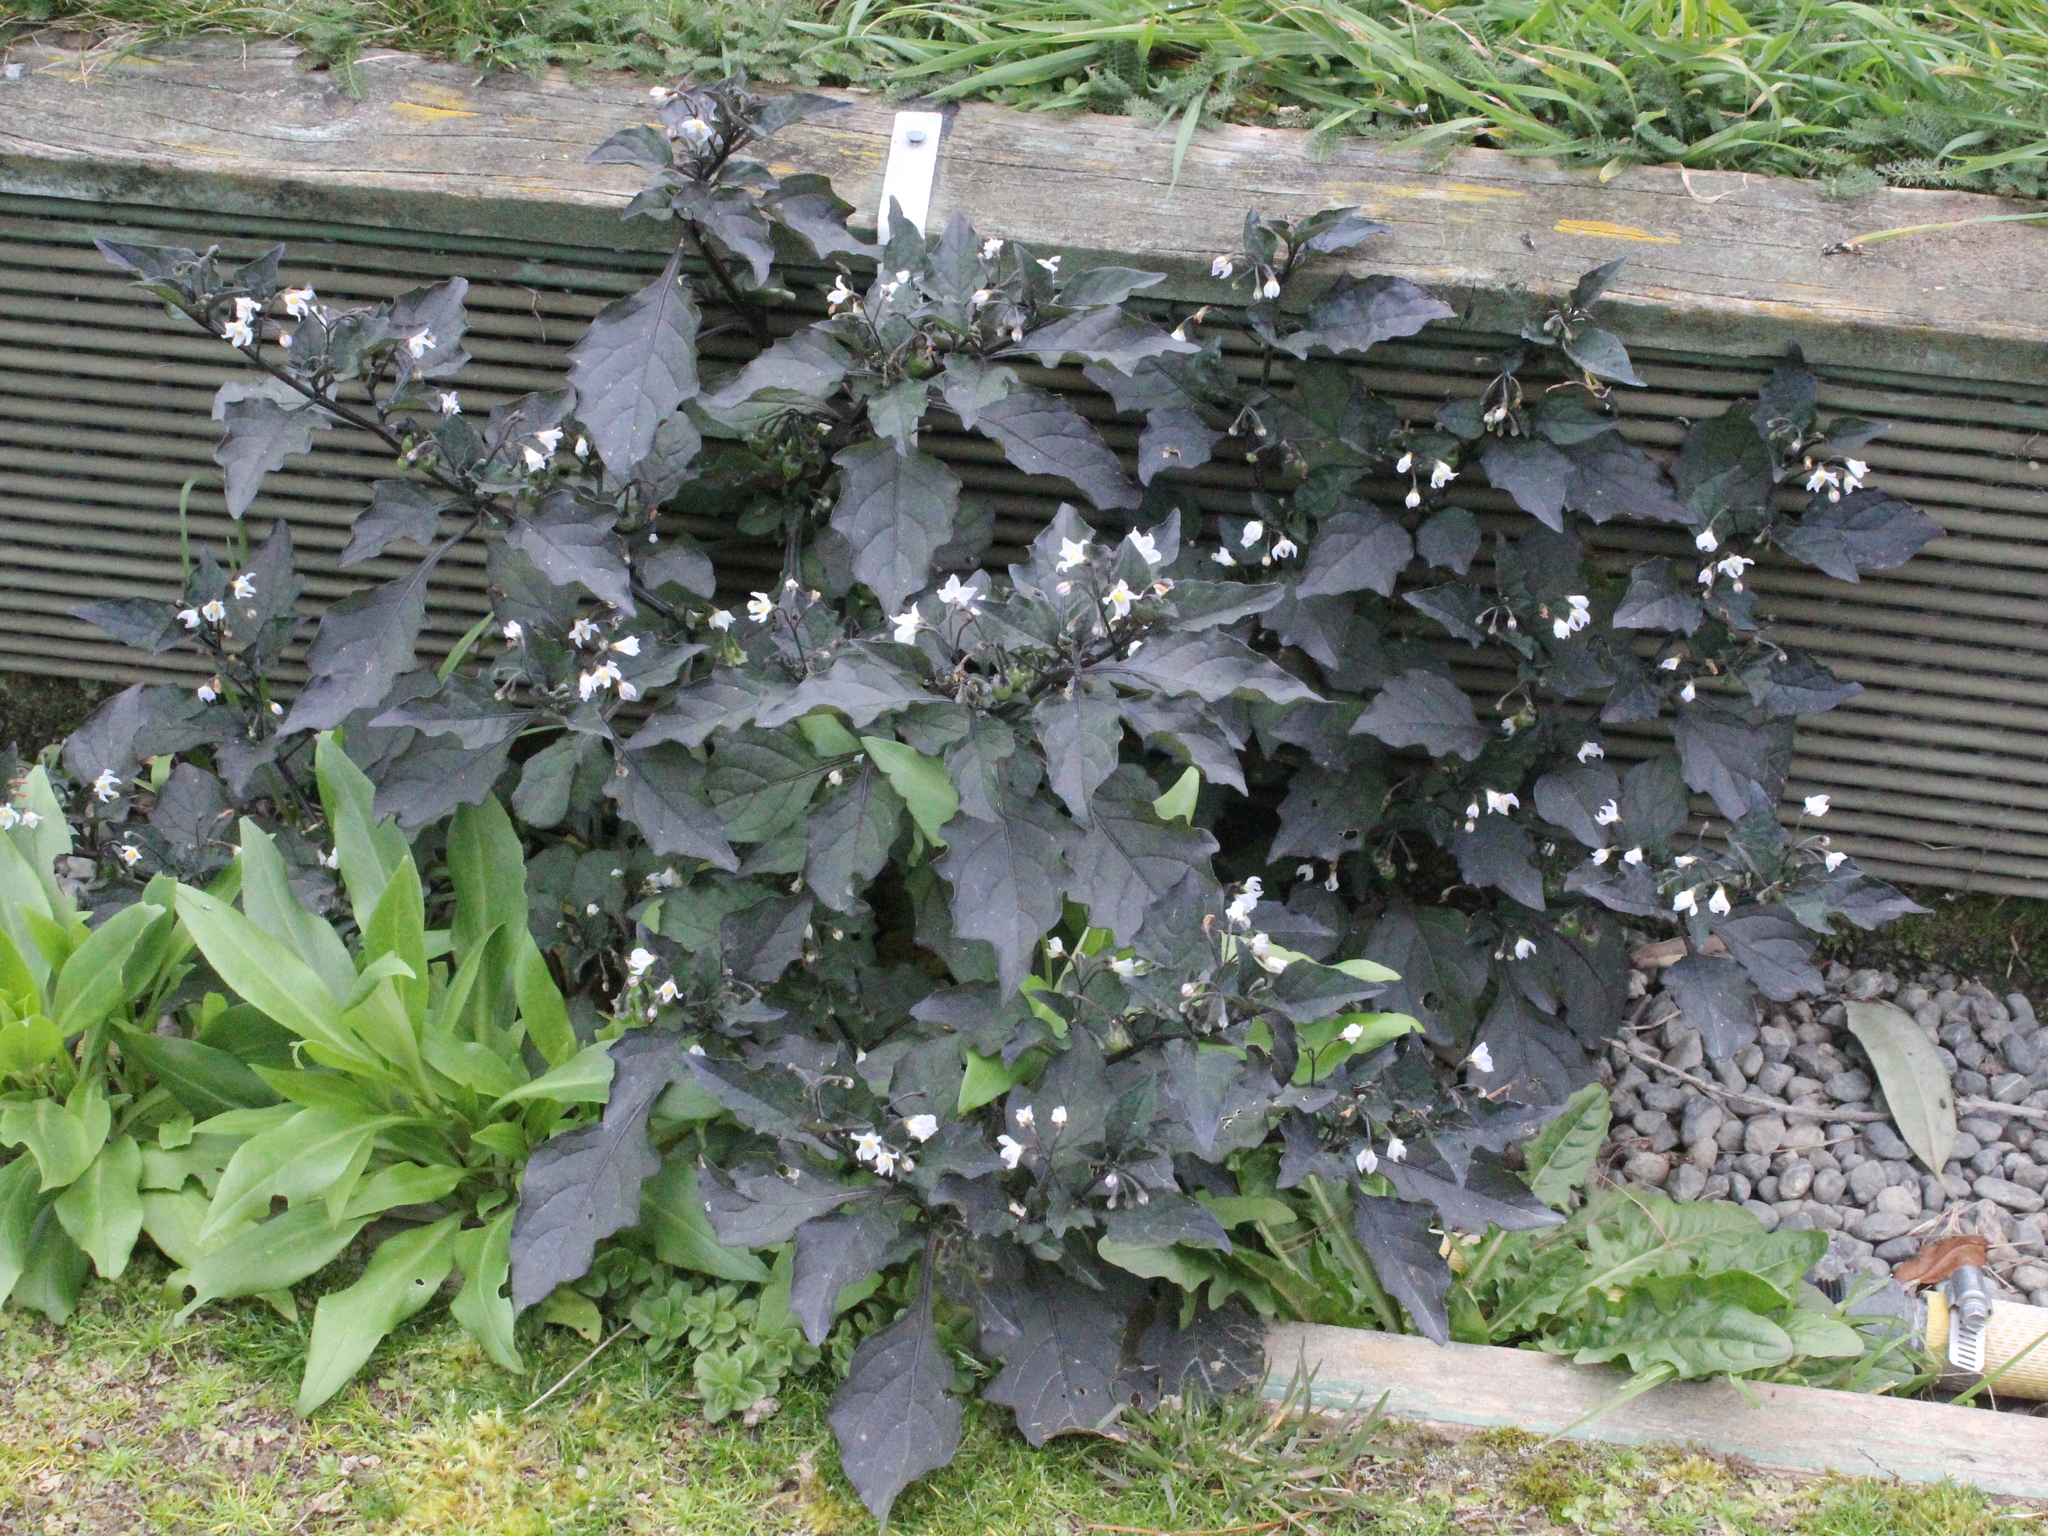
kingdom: Plantae
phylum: Tracheophyta
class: Magnoliopsida
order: Solanales
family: Solanaceae
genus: Solanum
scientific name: Solanum nigrum
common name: Black nightshade
